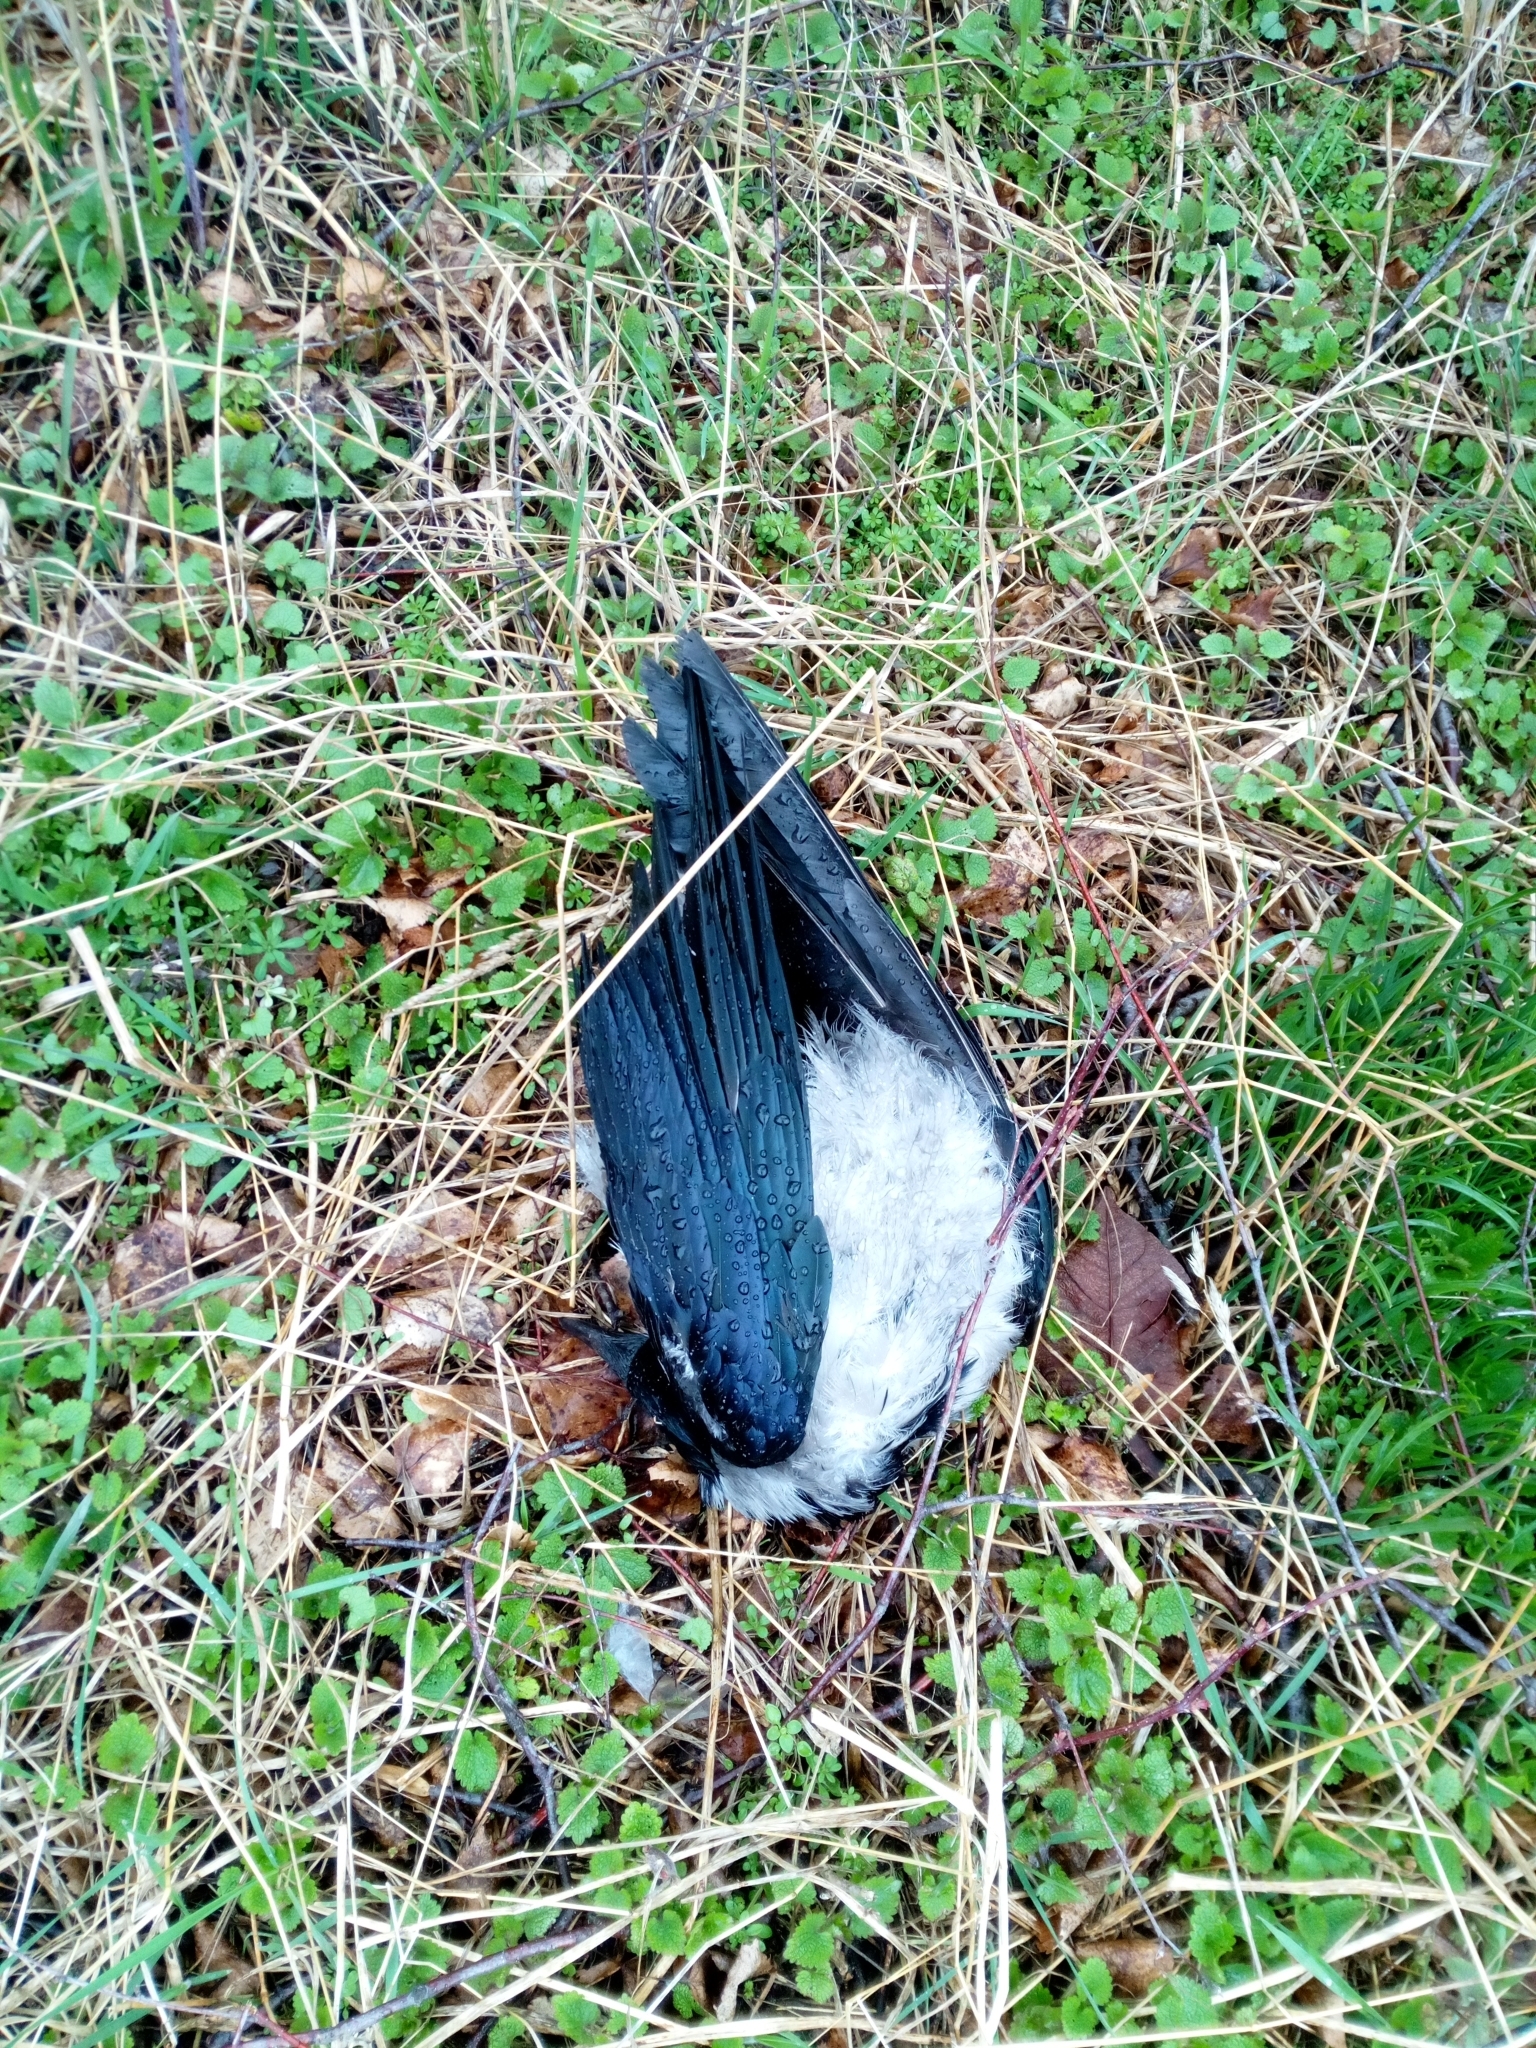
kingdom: Animalia
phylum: Chordata
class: Aves
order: Passeriformes
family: Corvidae
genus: Corvus
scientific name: Corvus cornix
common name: Hooded crow
